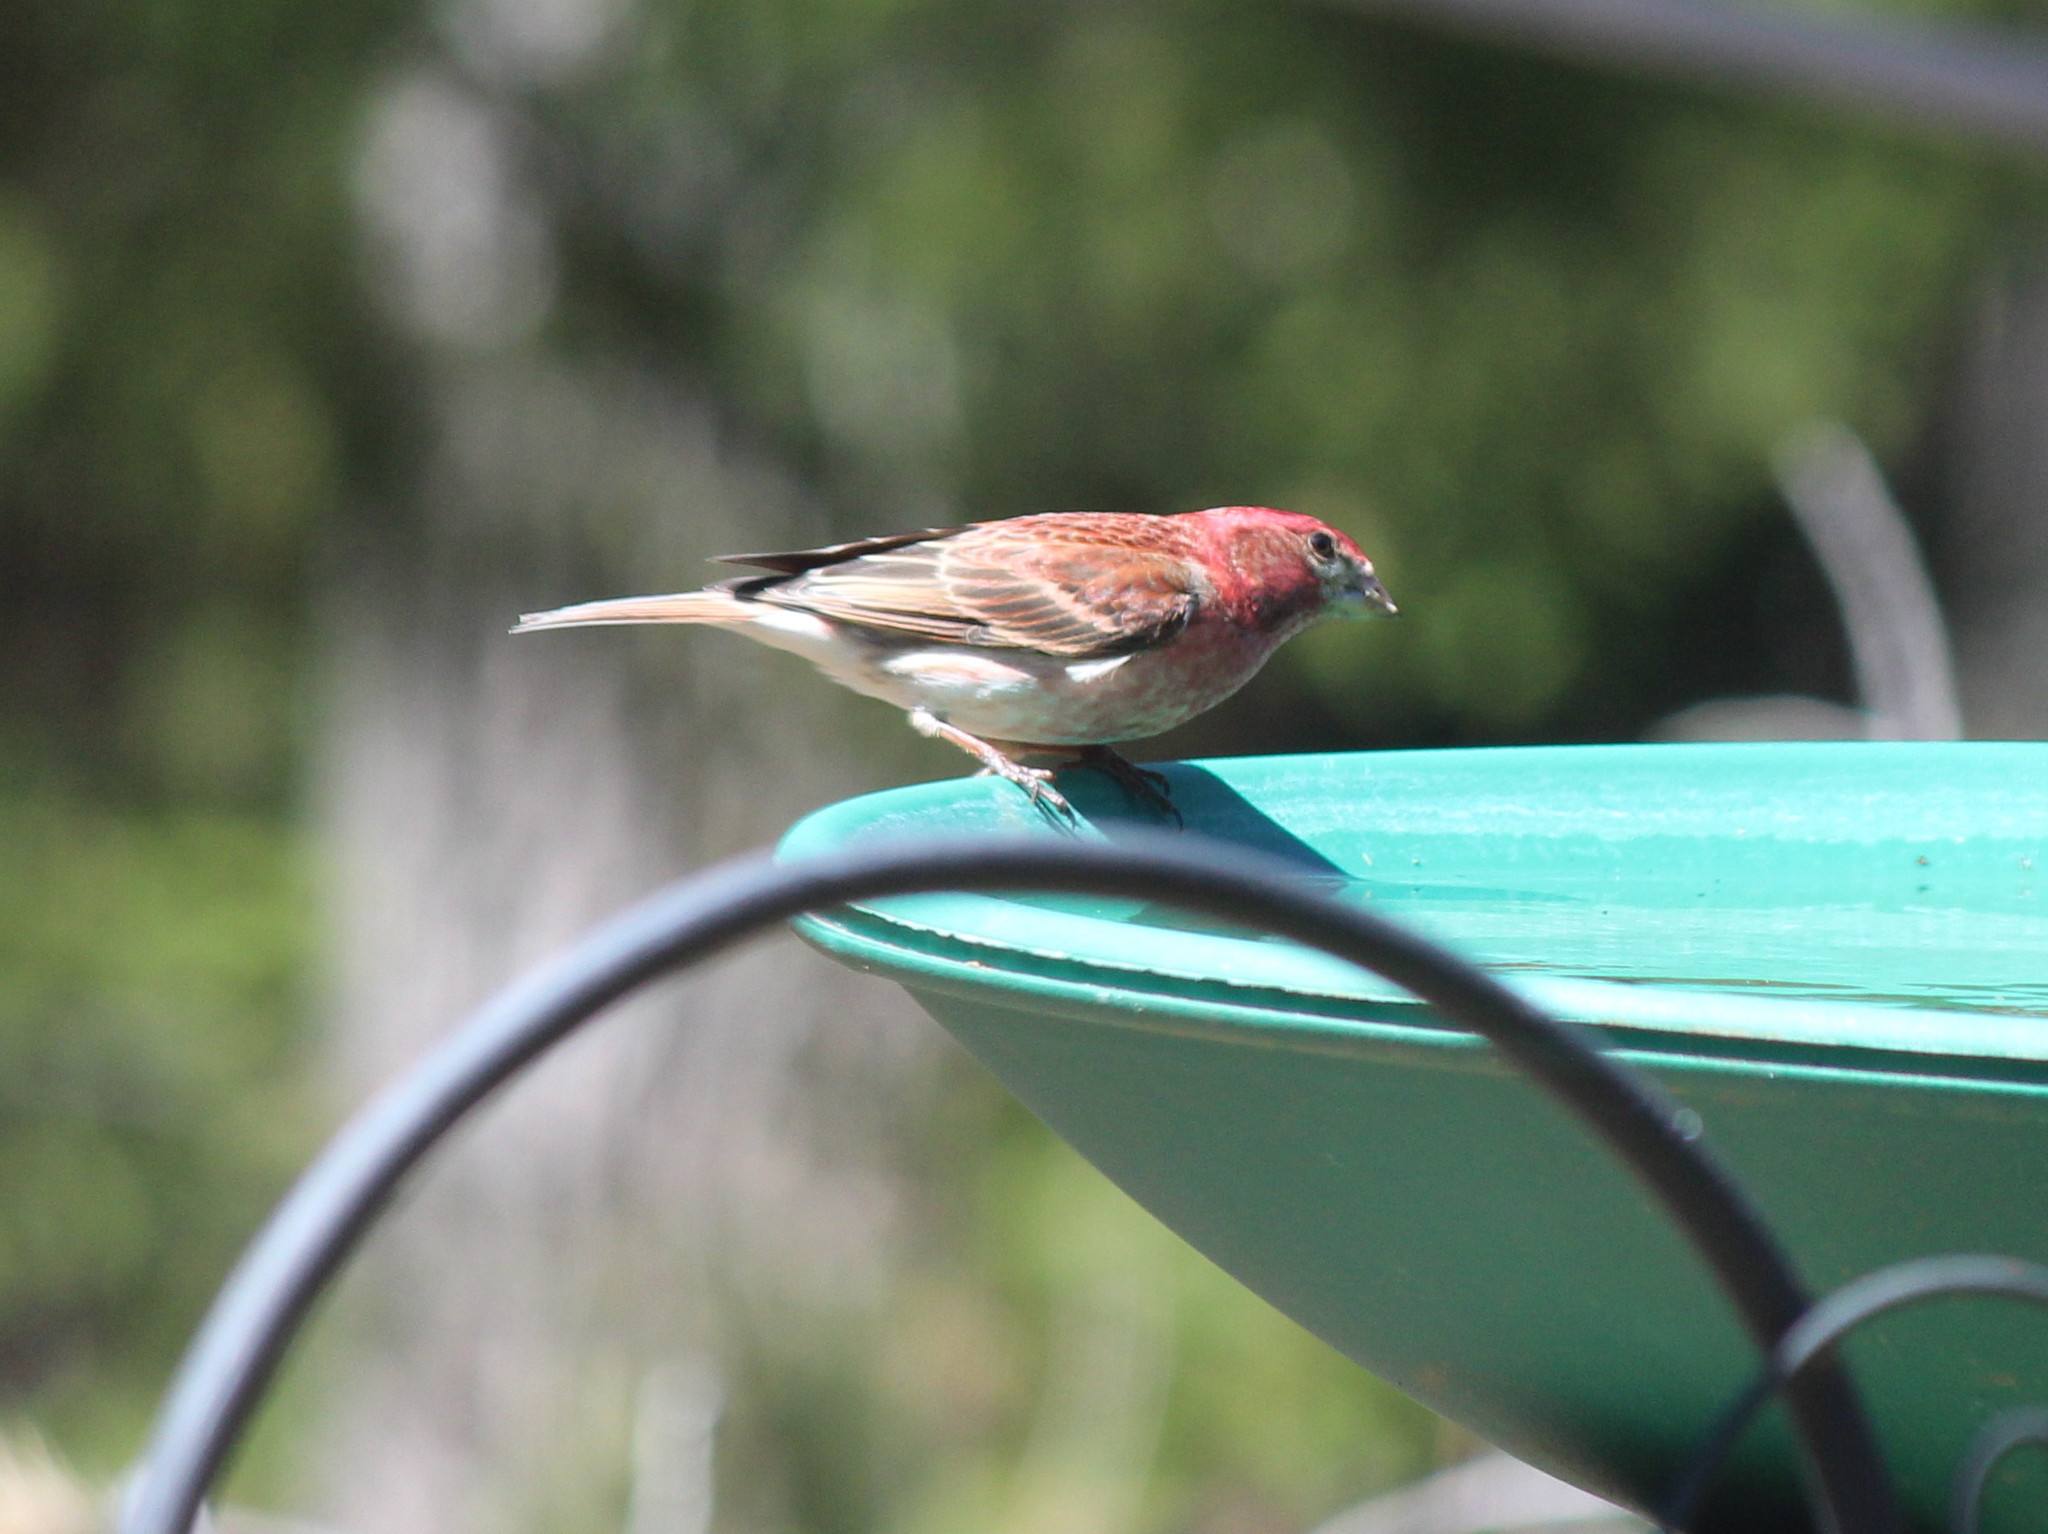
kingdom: Animalia
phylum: Chordata
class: Aves
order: Passeriformes
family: Fringillidae
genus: Haemorhous
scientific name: Haemorhous purpureus
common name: Purple finch
